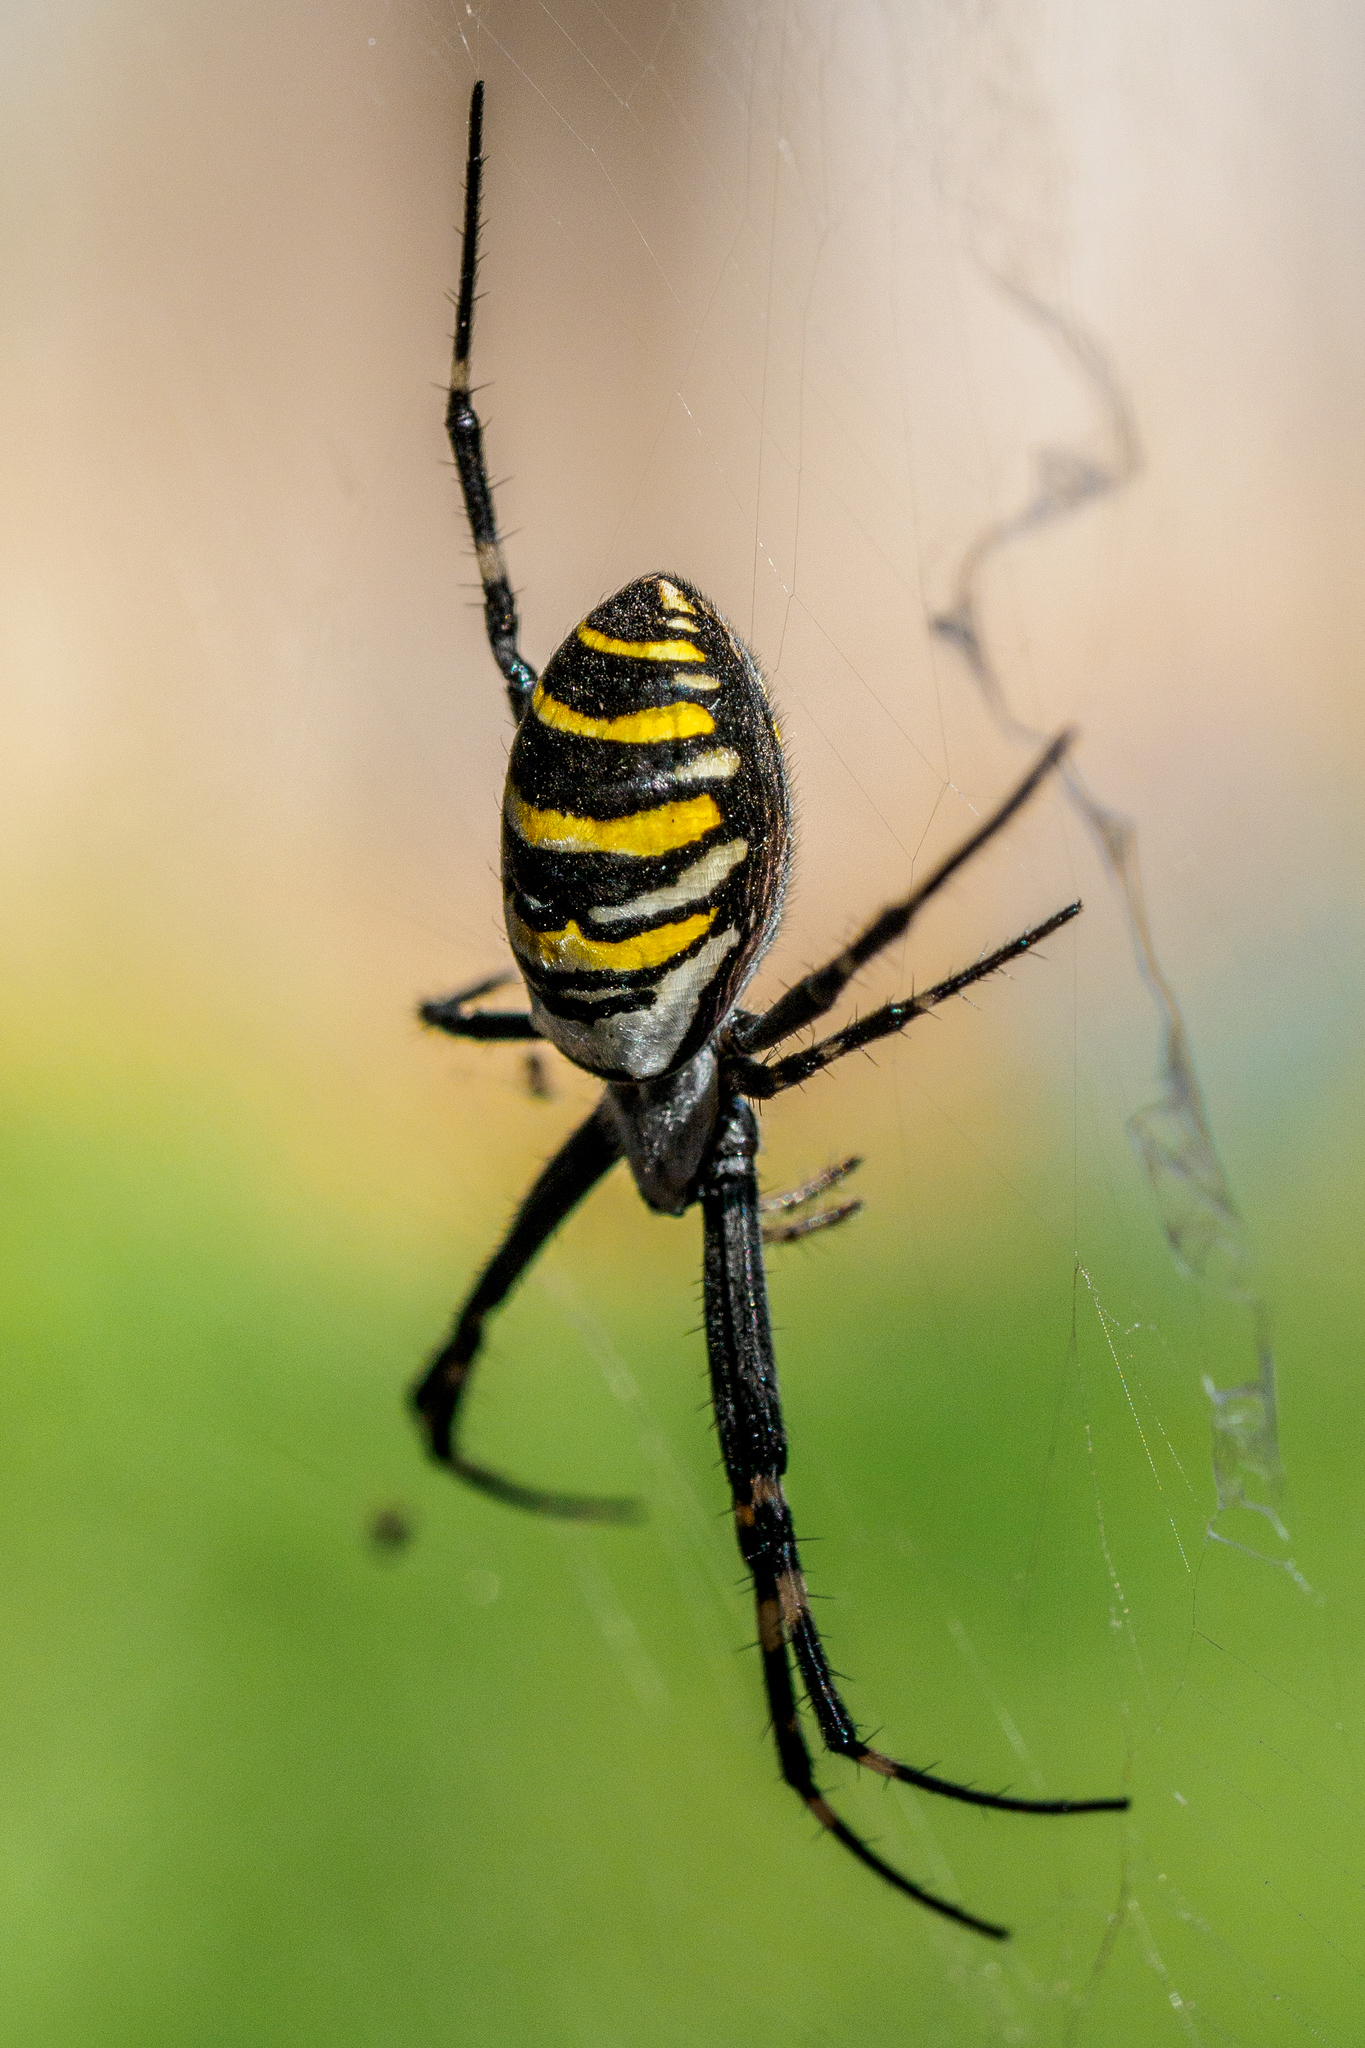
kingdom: Animalia
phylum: Arthropoda
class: Arachnida
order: Araneae
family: Araneidae
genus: Argiope
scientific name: Argiope bruennichi
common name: Wasp spider
